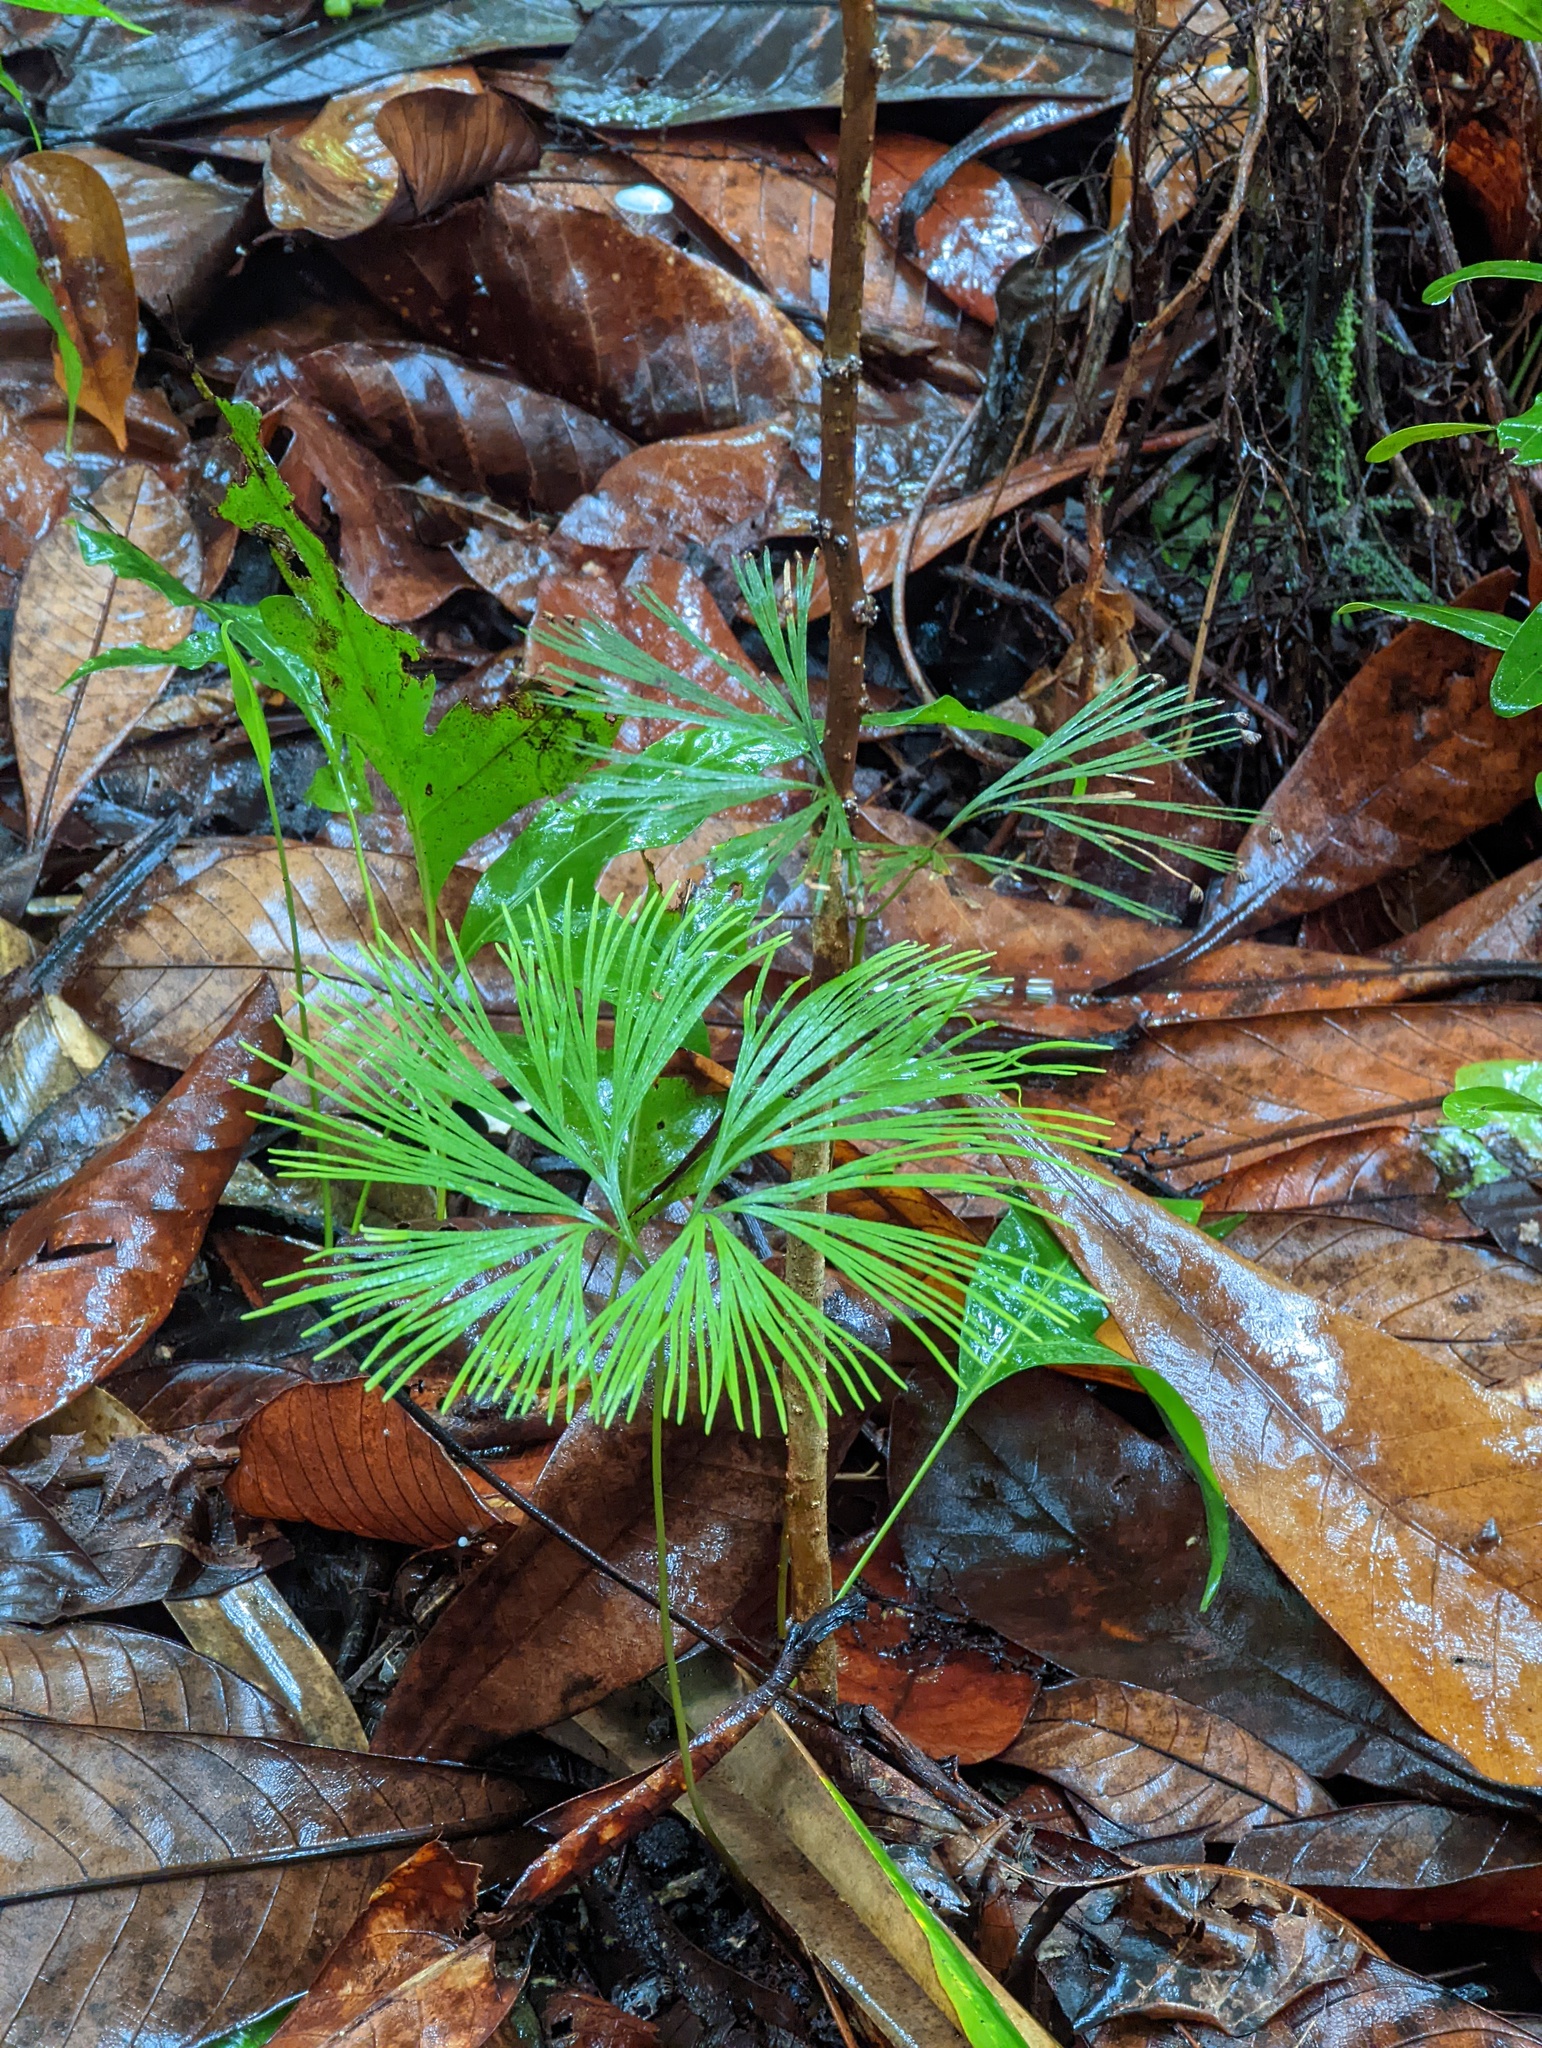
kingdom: Plantae
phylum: Tracheophyta
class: Polypodiopsida
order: Schizaeales
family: Schizaeaceae
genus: Schizaea
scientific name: Schizaea dichotoma
